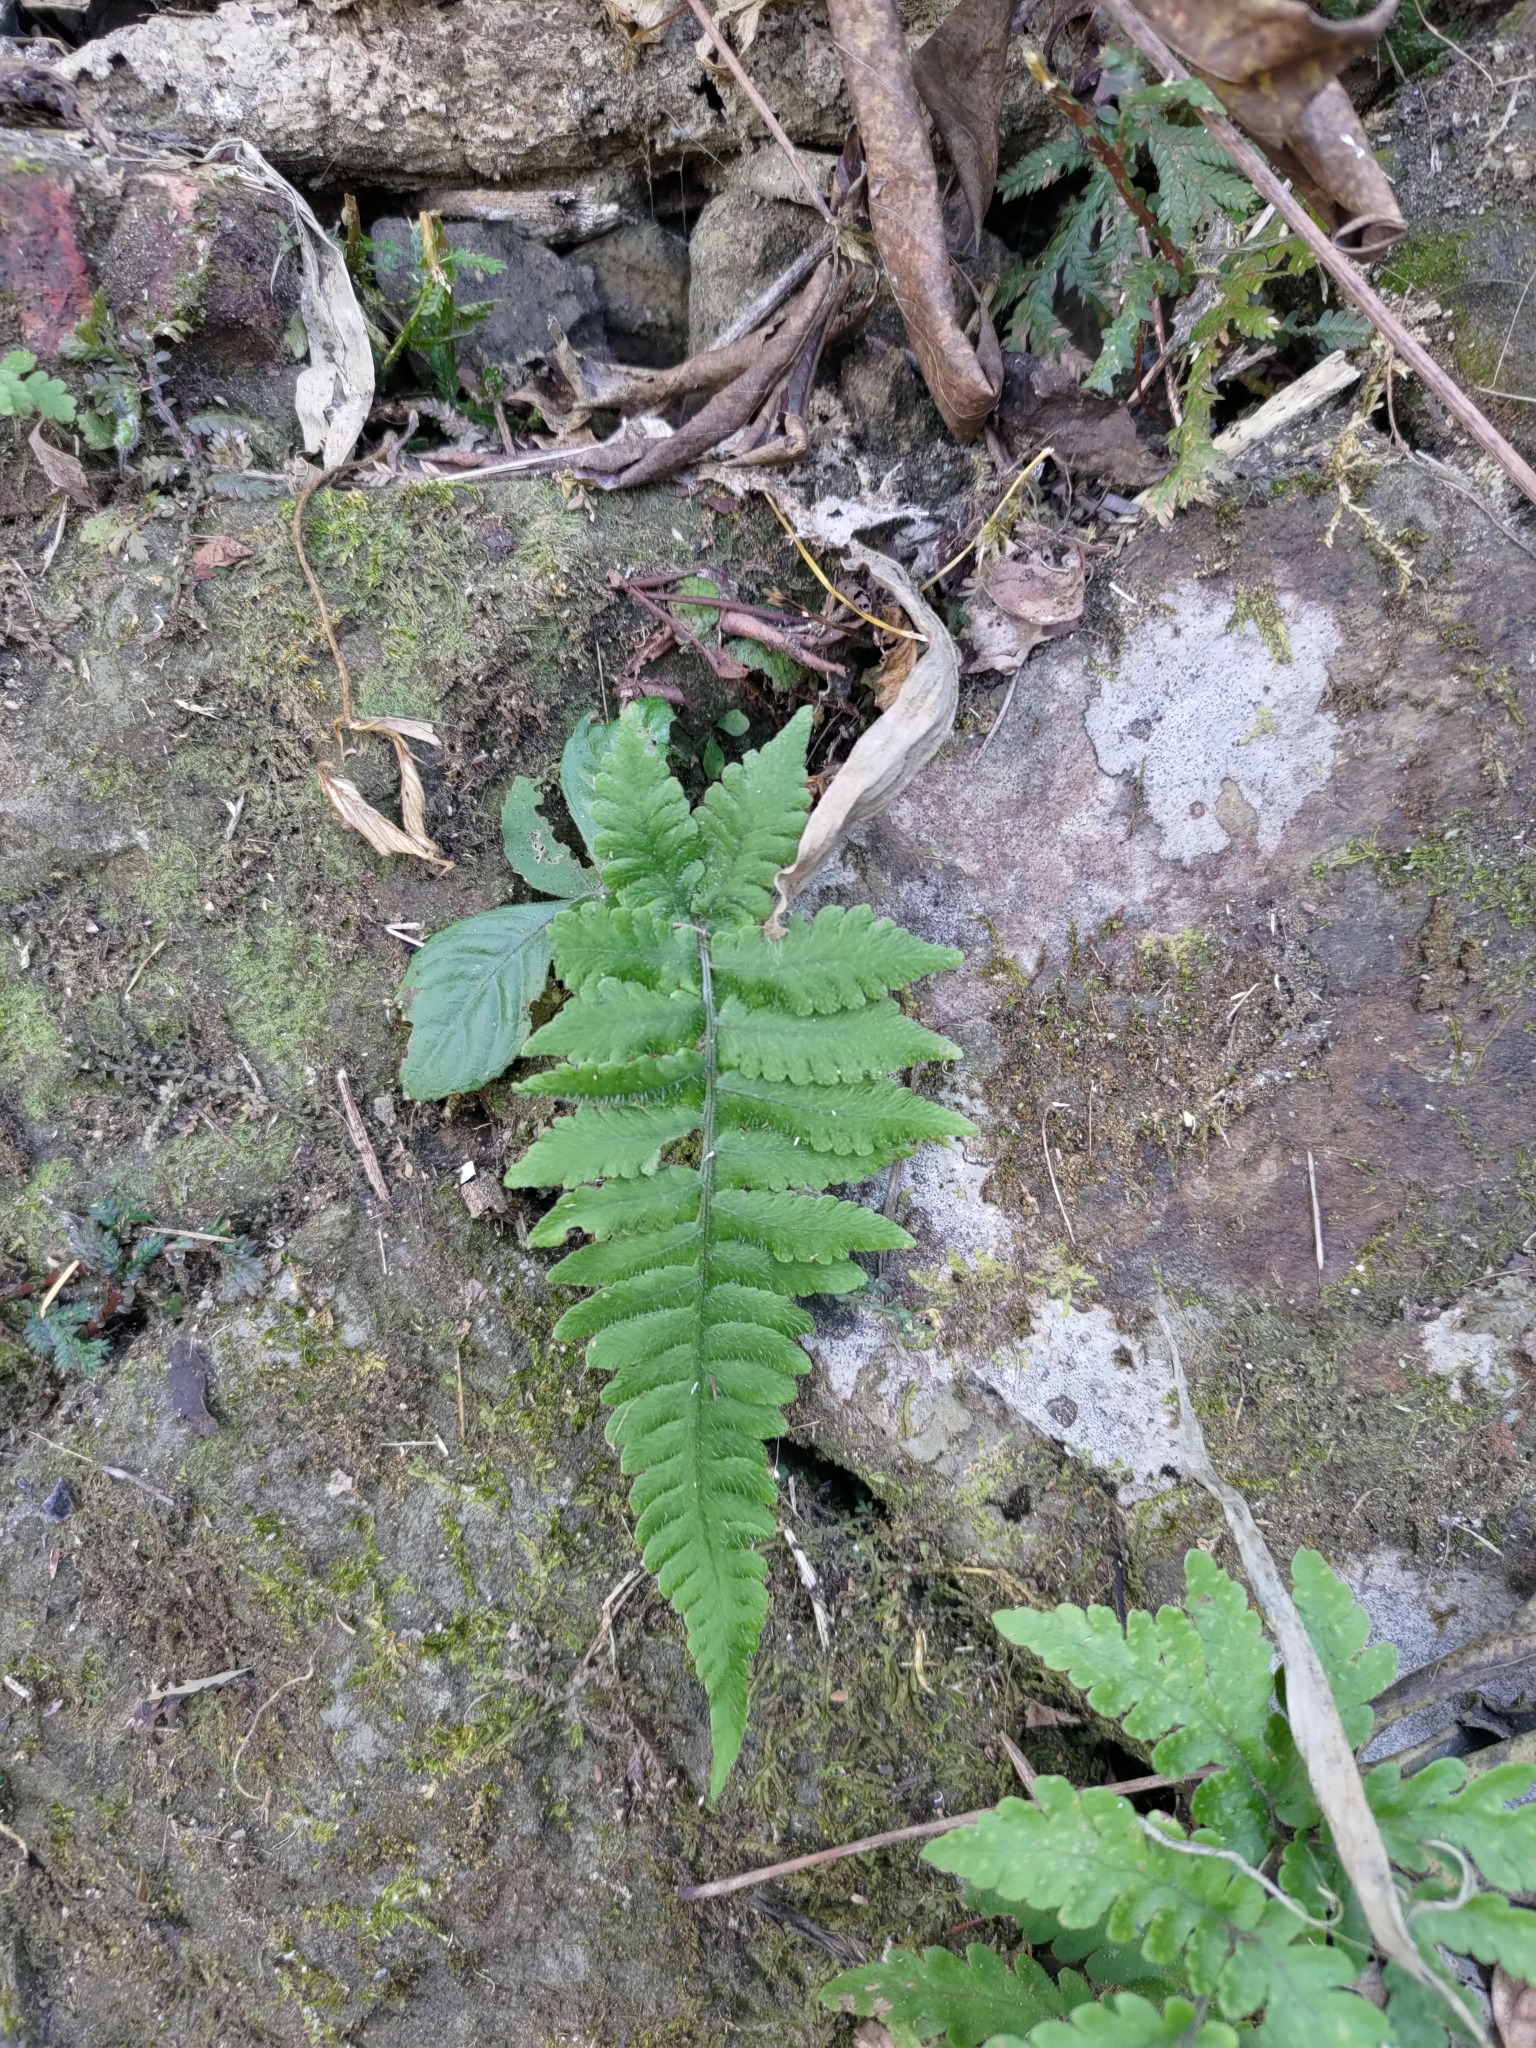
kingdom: Plantae
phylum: Tracheophyta
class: Polypodiopsida
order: Polypodiales
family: Athyriaceae
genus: Deparia
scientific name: Deparia petersenii
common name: Japanese false spleenwort
